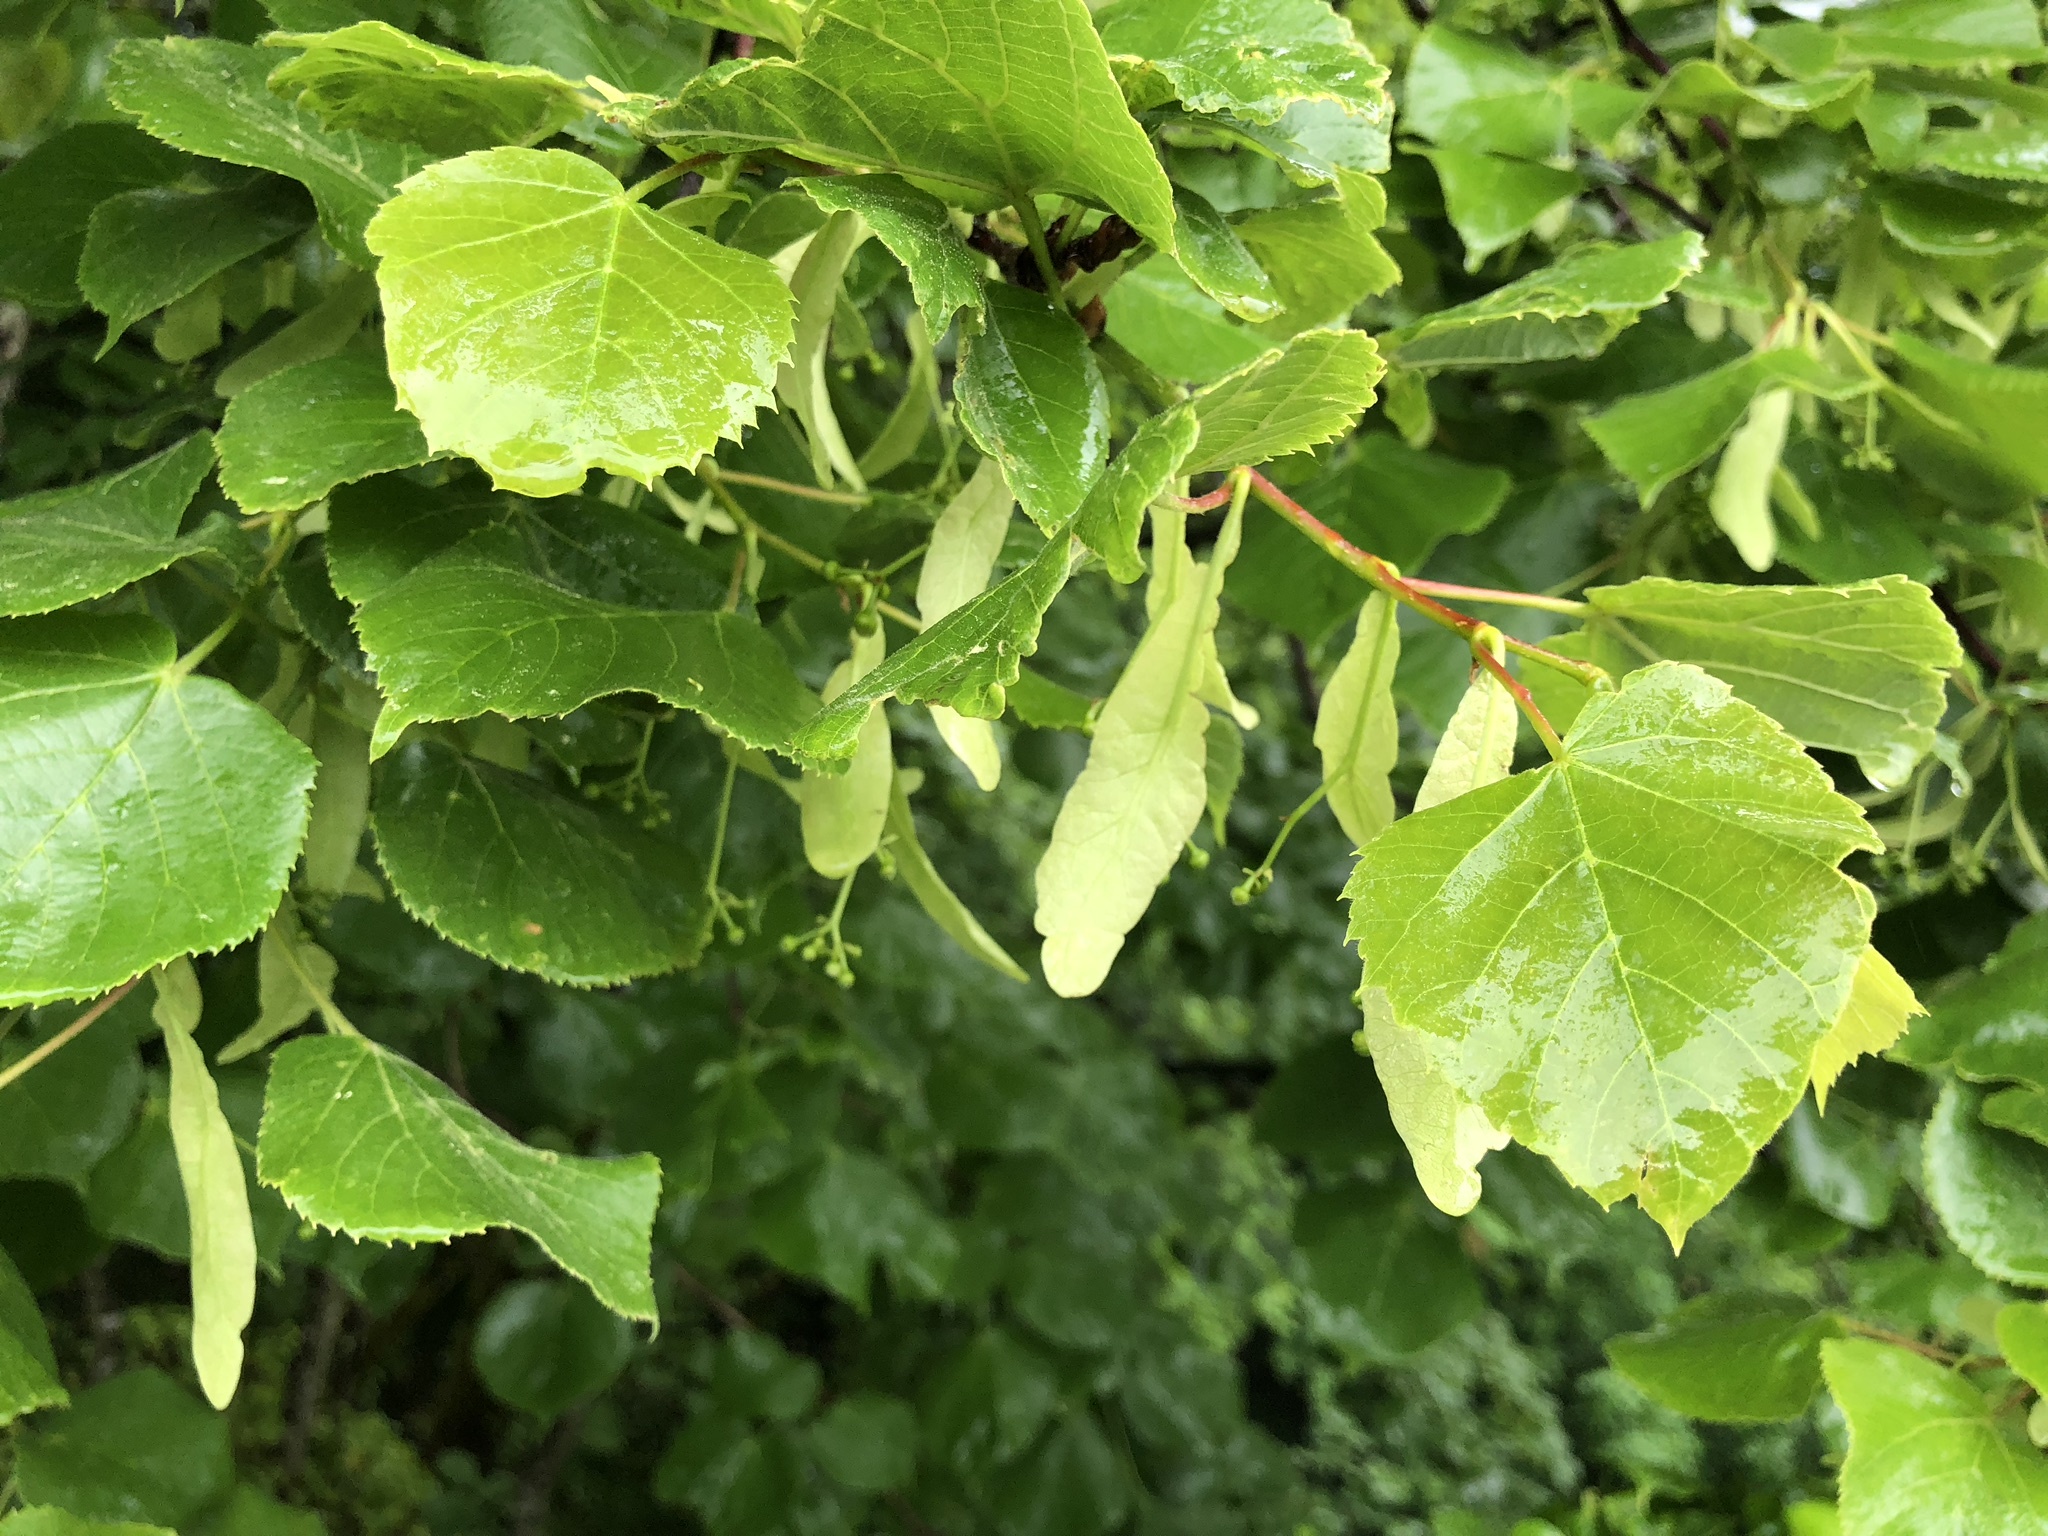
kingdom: Plantae
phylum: Tracheophyta
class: Magnoliopsida
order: Malvales
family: Malvaceae
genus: Tilia
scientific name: Tilia cordata
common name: Small-leaved lime
